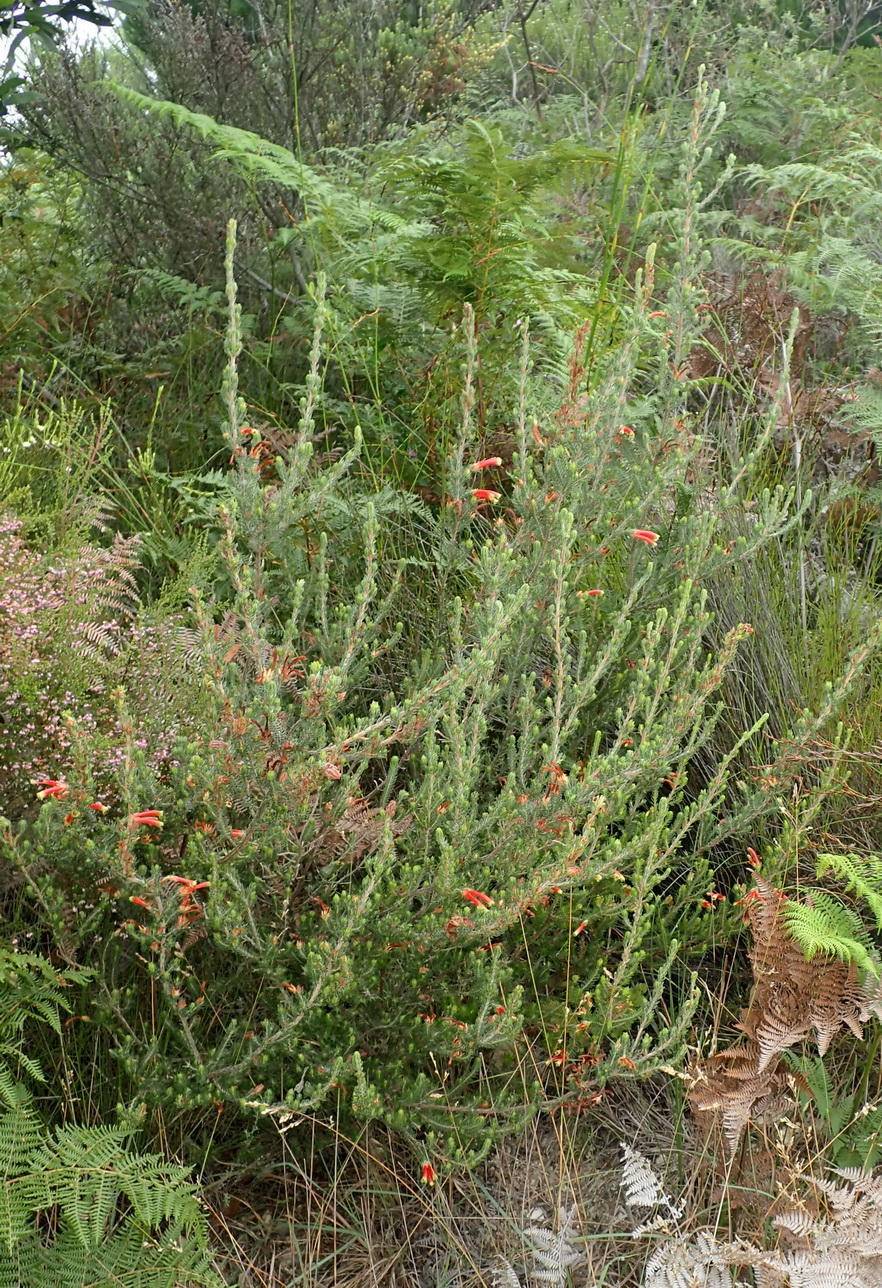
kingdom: Plantae
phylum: Tracheophyta
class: Magnoliopsida
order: Ericales
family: Ericaceae
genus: Erica
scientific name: Erica discolor
